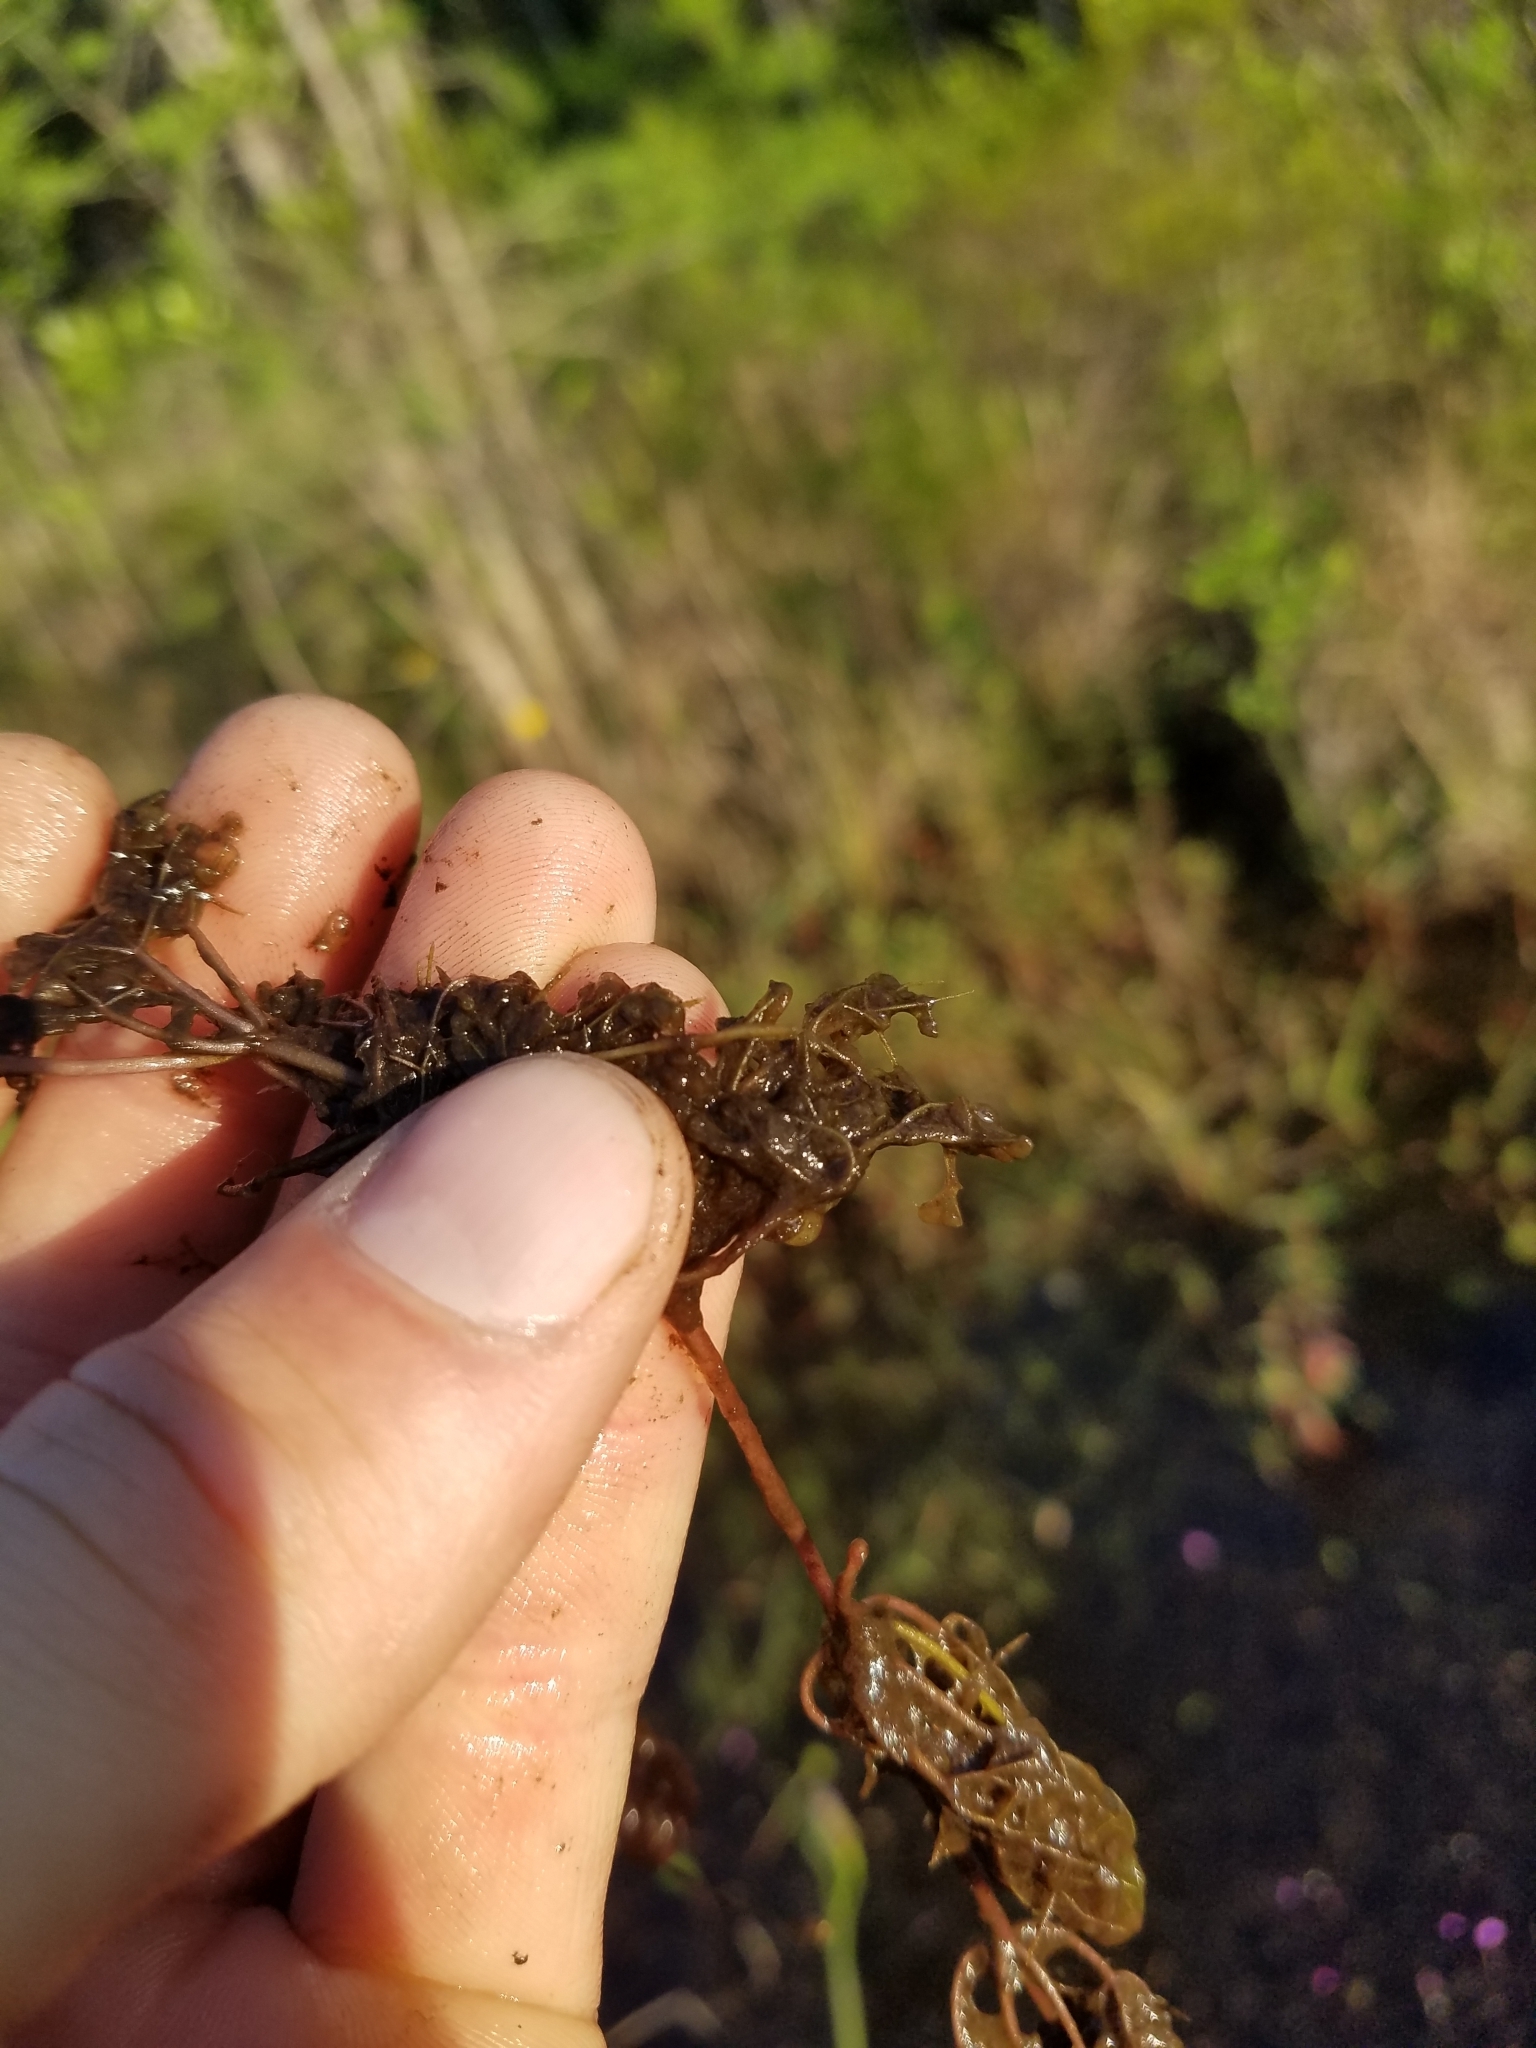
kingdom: Plantae
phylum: Tracheophyta
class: Magnoliopsida
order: Lamiales
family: Lentibulariaceae
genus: Utricularia
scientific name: Utricularia purpurea
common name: Eastern purple bladderwort
